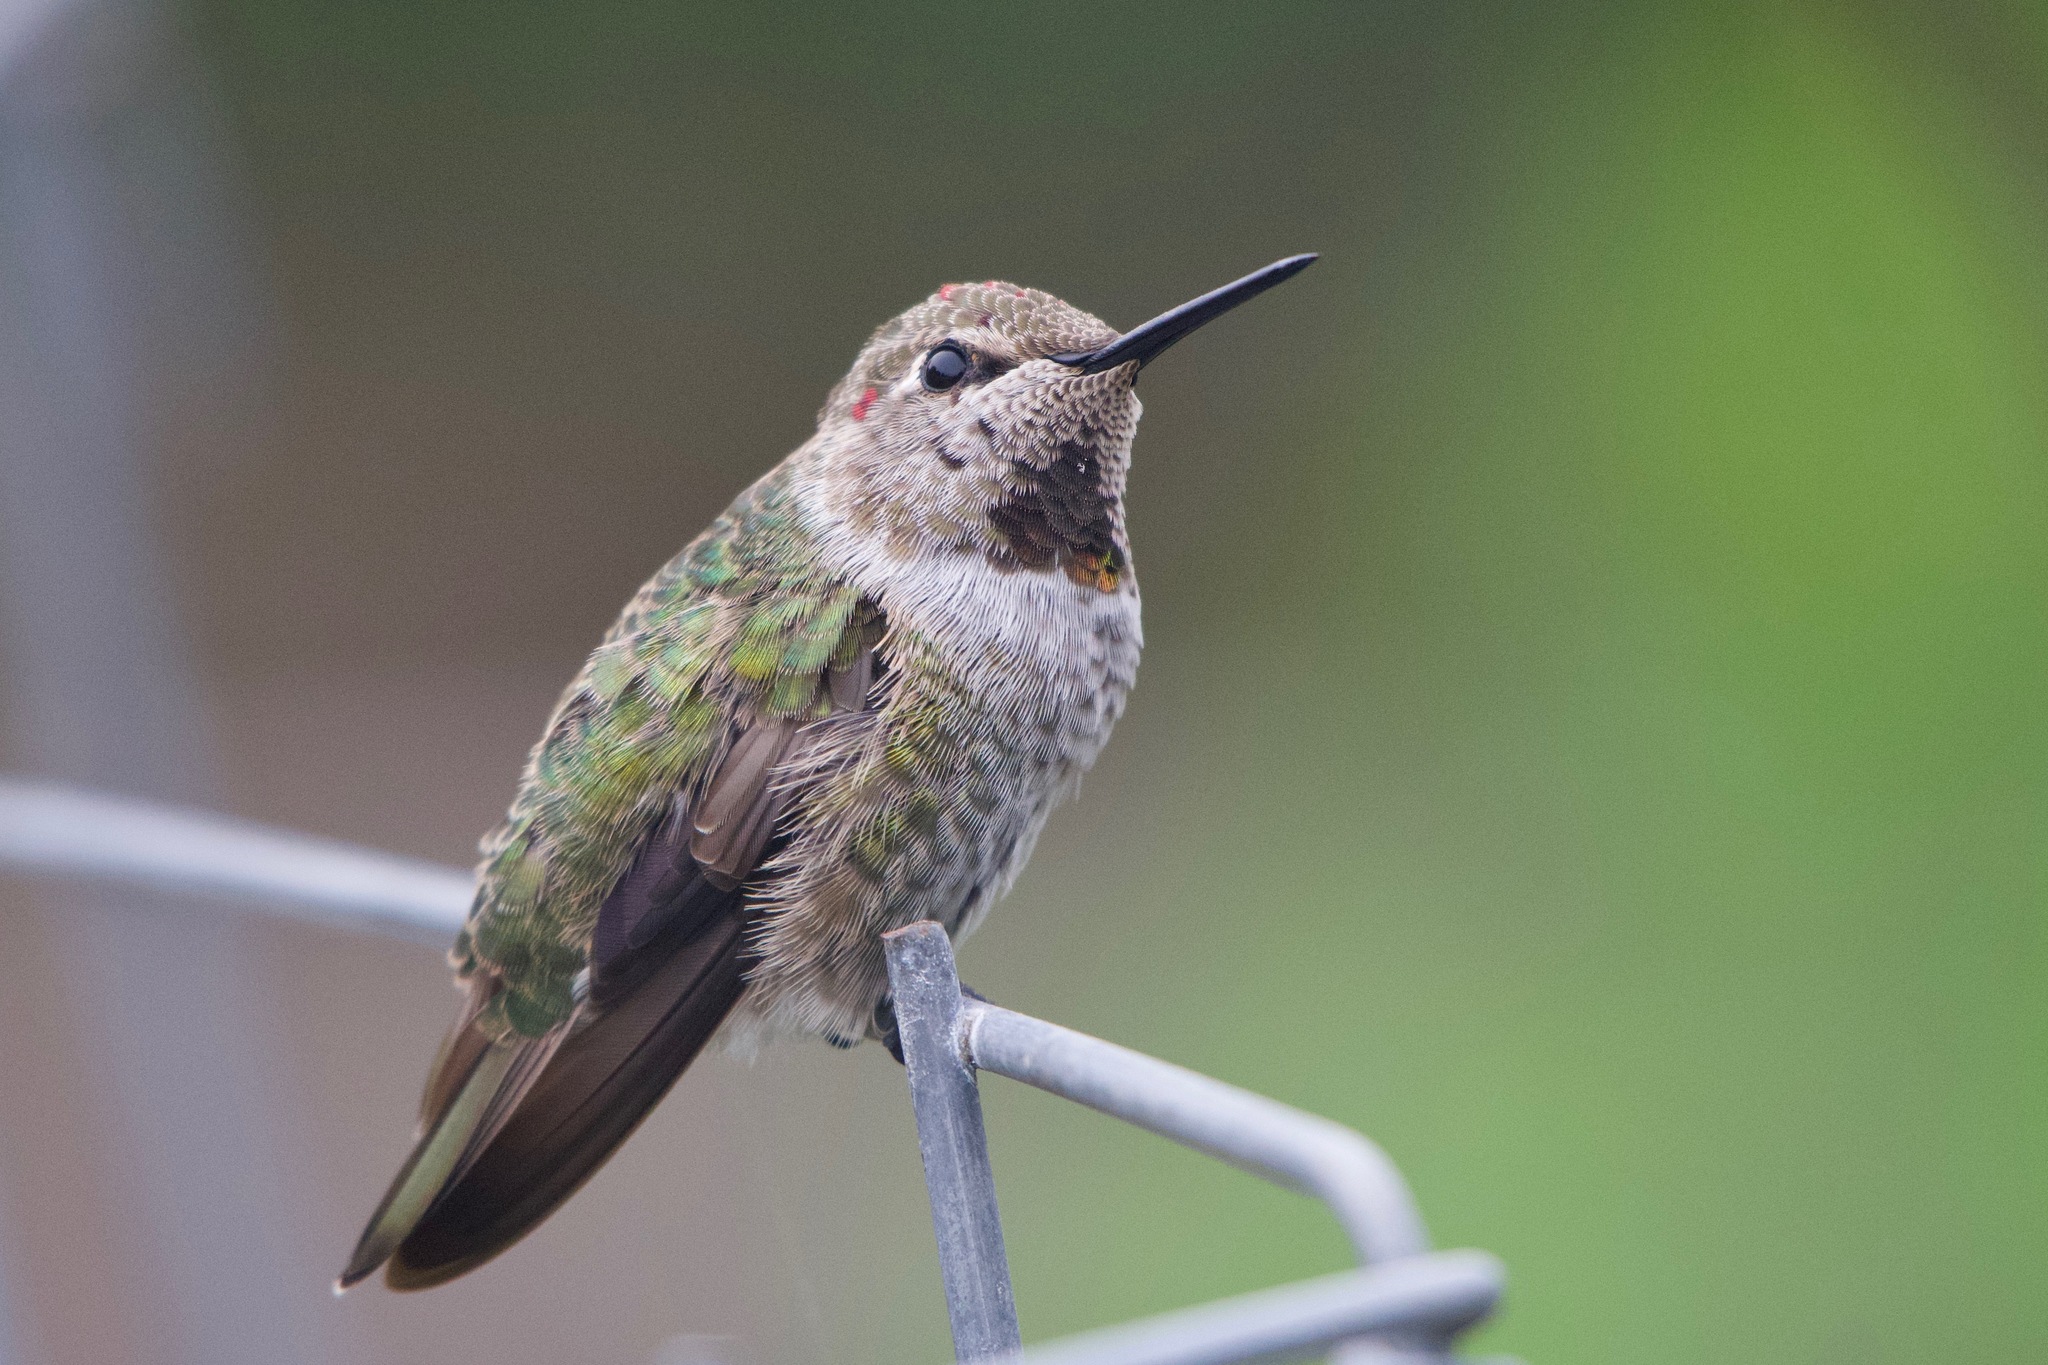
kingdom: Animalia
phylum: Chordata
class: Aves
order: Apodiformes
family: Trochilidae
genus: Calypte
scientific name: Calypte anna
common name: Anna's hummingbird
